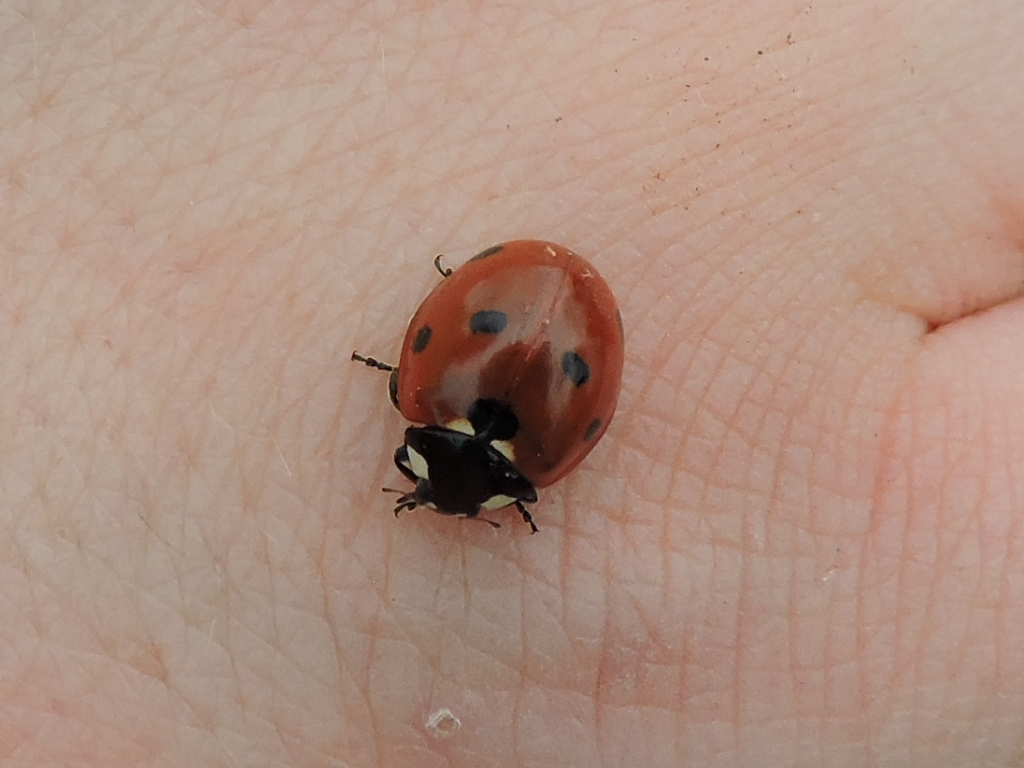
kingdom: Animalia
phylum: Arthropoda
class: Insecta
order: Coleoptera
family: Coccinellidae
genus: Coccinella
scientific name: Coccinella septempunctata
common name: Sevenspotted lady beetle
